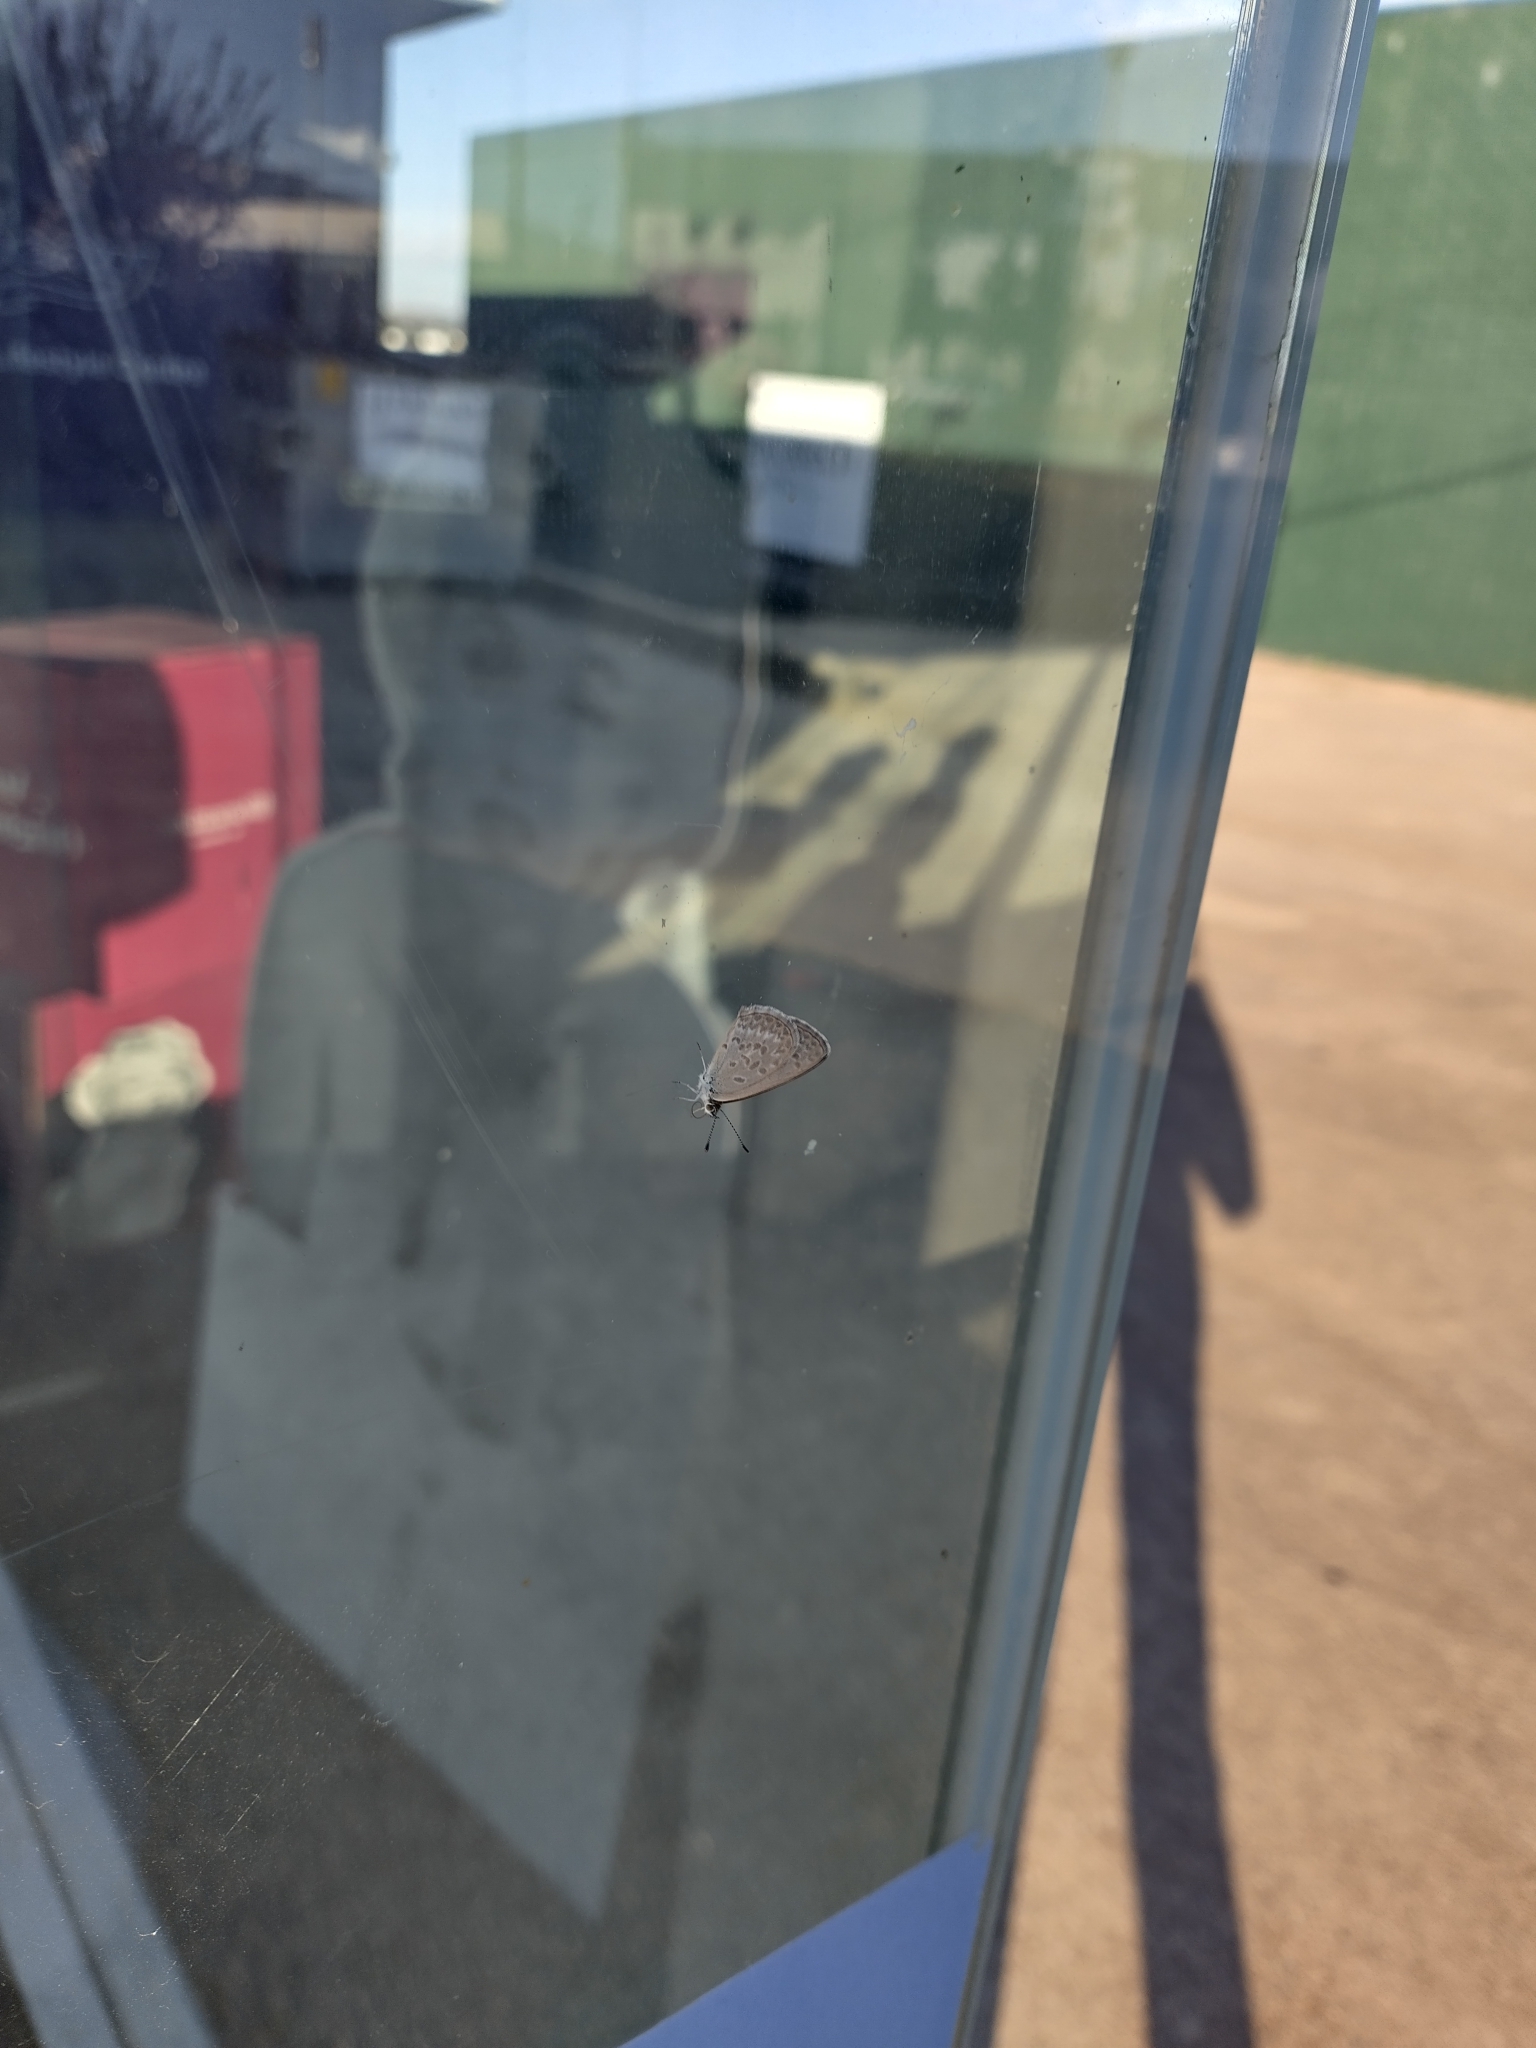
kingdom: Animalia
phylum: Arthropoda
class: Insecta
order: Lepidoptera
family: Lycaenidae
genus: Zizina
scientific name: Zizina labradus
